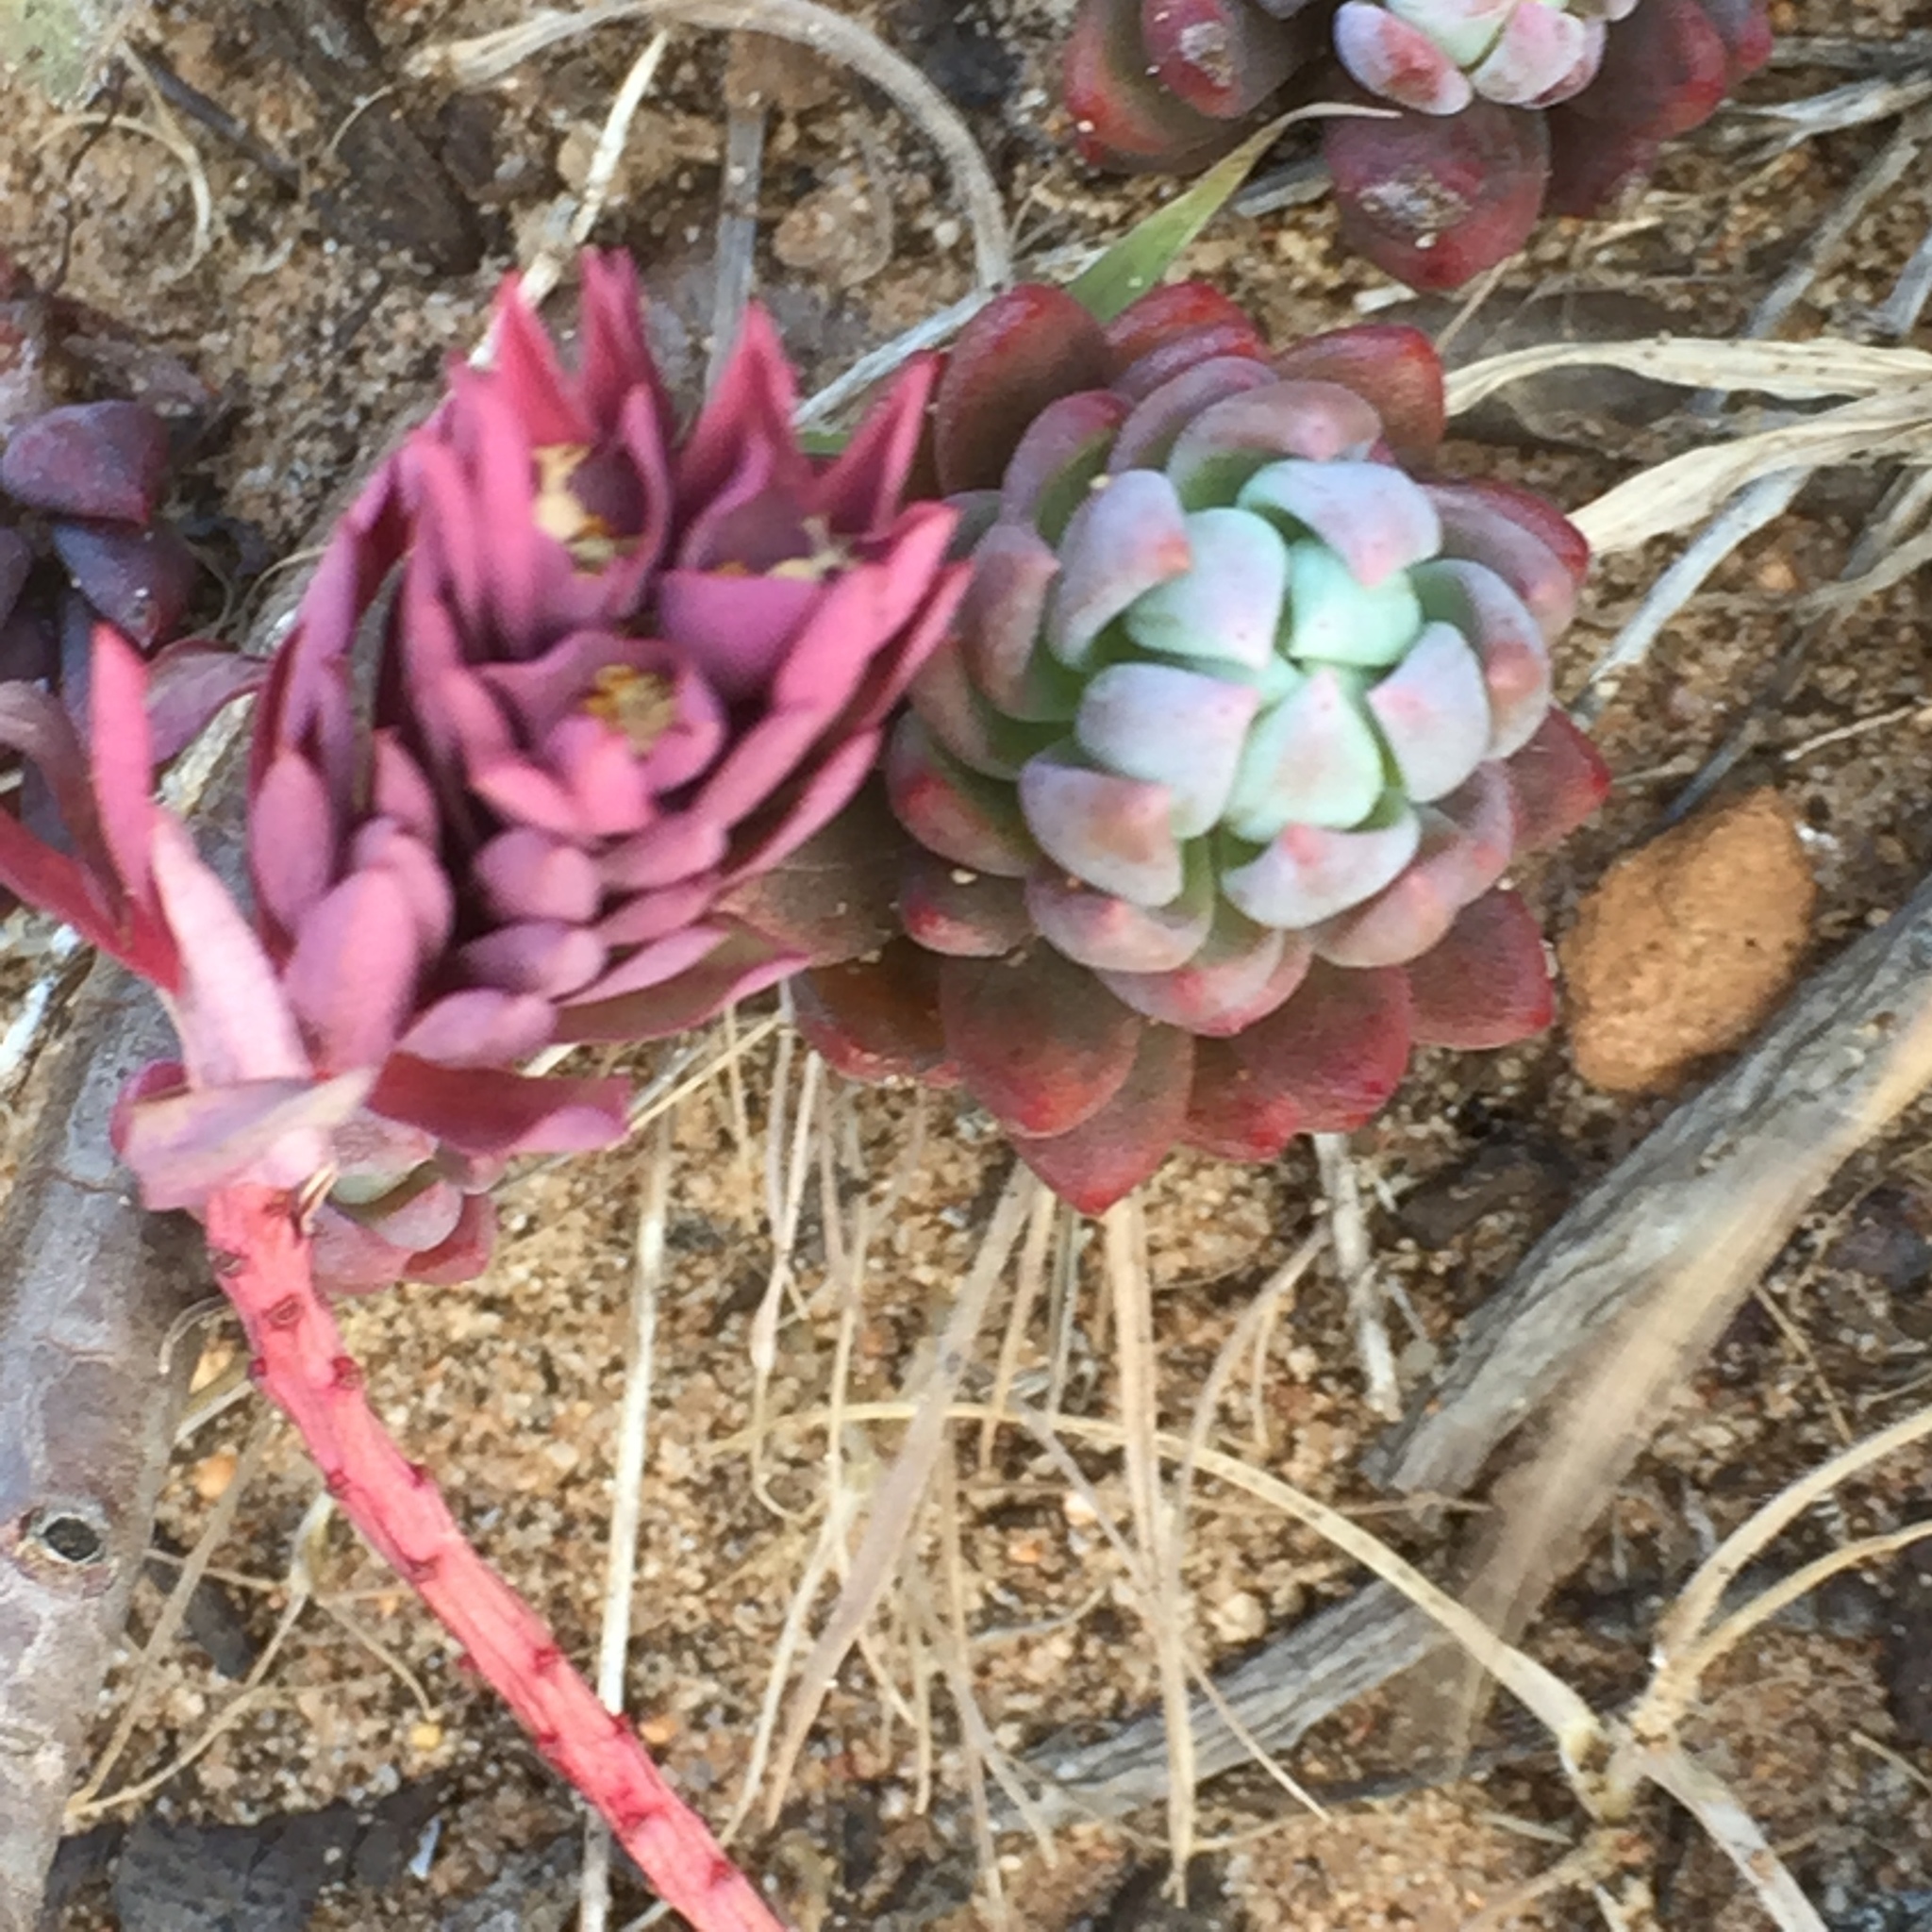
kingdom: Plantae
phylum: Tracheophyta
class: Magnoliopsida
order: Saxifragales
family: Crassulaceae
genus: Petrosedum
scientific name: Petrosedum sediforme
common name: Pale stonecrop
